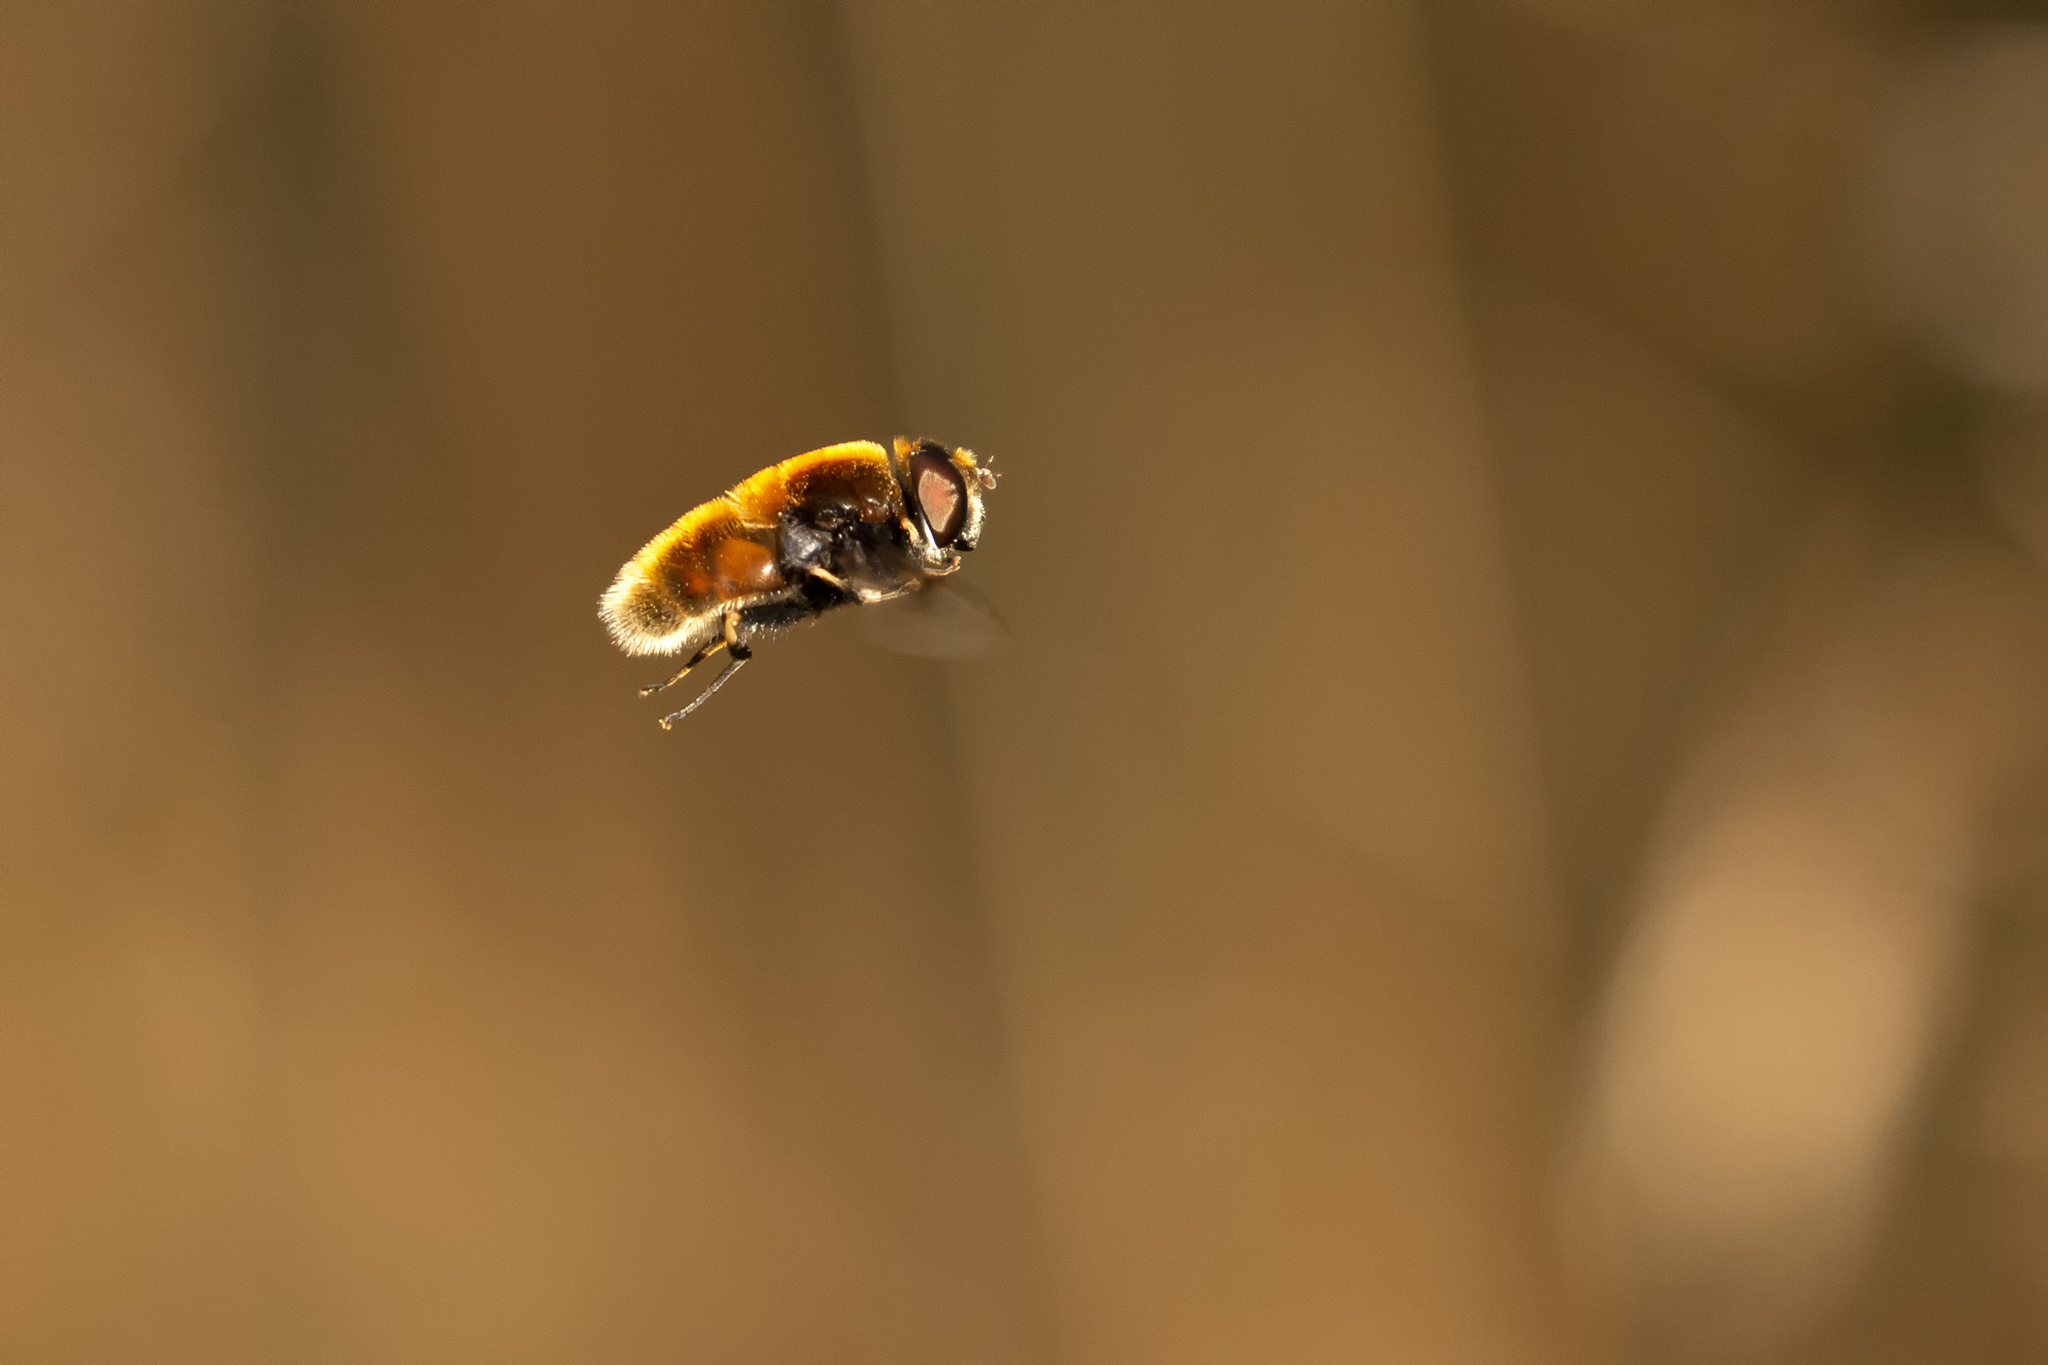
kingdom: Animalia
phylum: Arthropoda
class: Insecta
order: Diptera
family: Syrphidae
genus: Eristalis
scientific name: Eristalis intricaria
